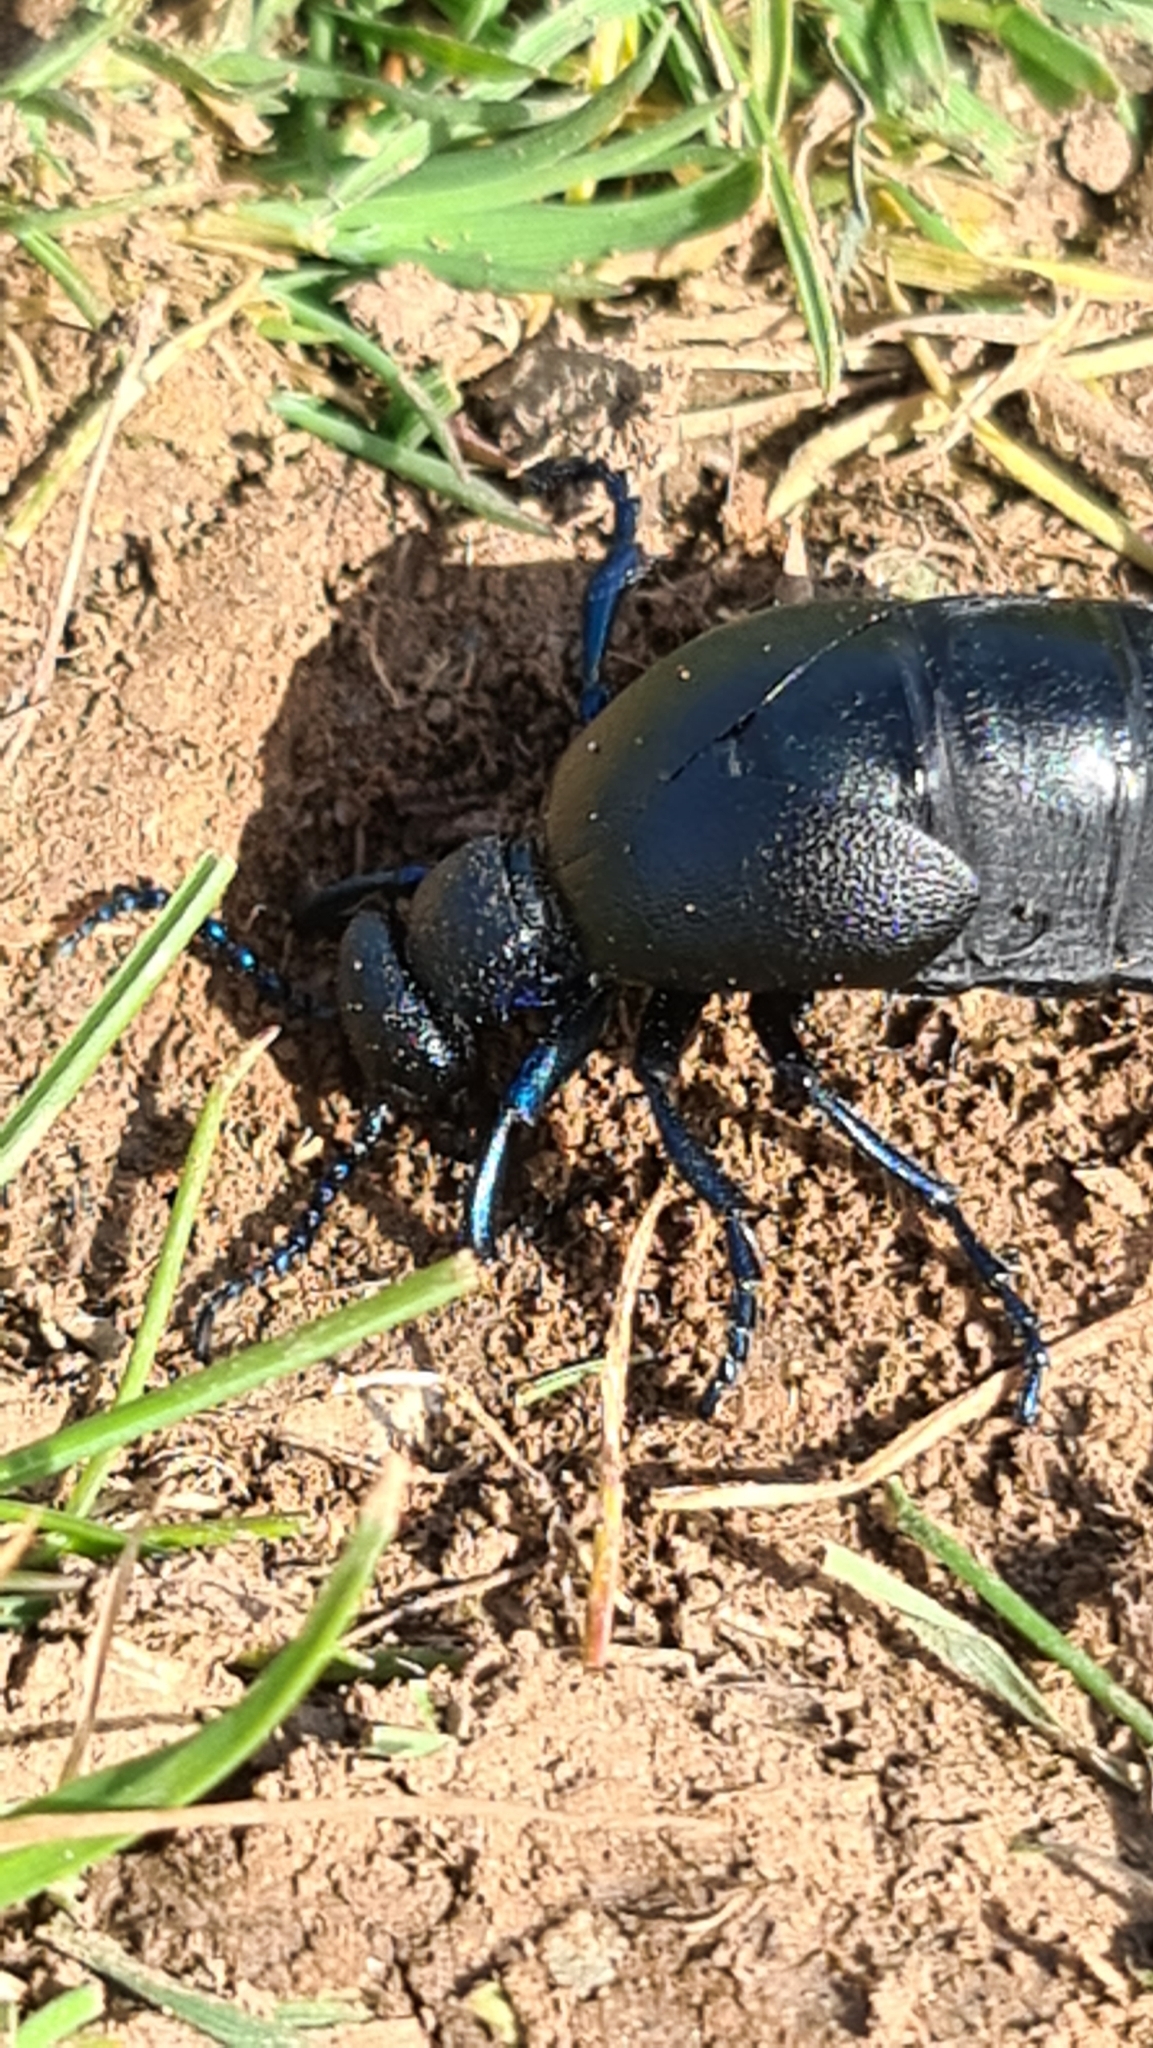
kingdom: Animalia
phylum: Arthropoda
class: Insecta
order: Coleoptera
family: Meloidae
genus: Meloe
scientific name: Meloe proscarabaeus
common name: Black oil-beetle
